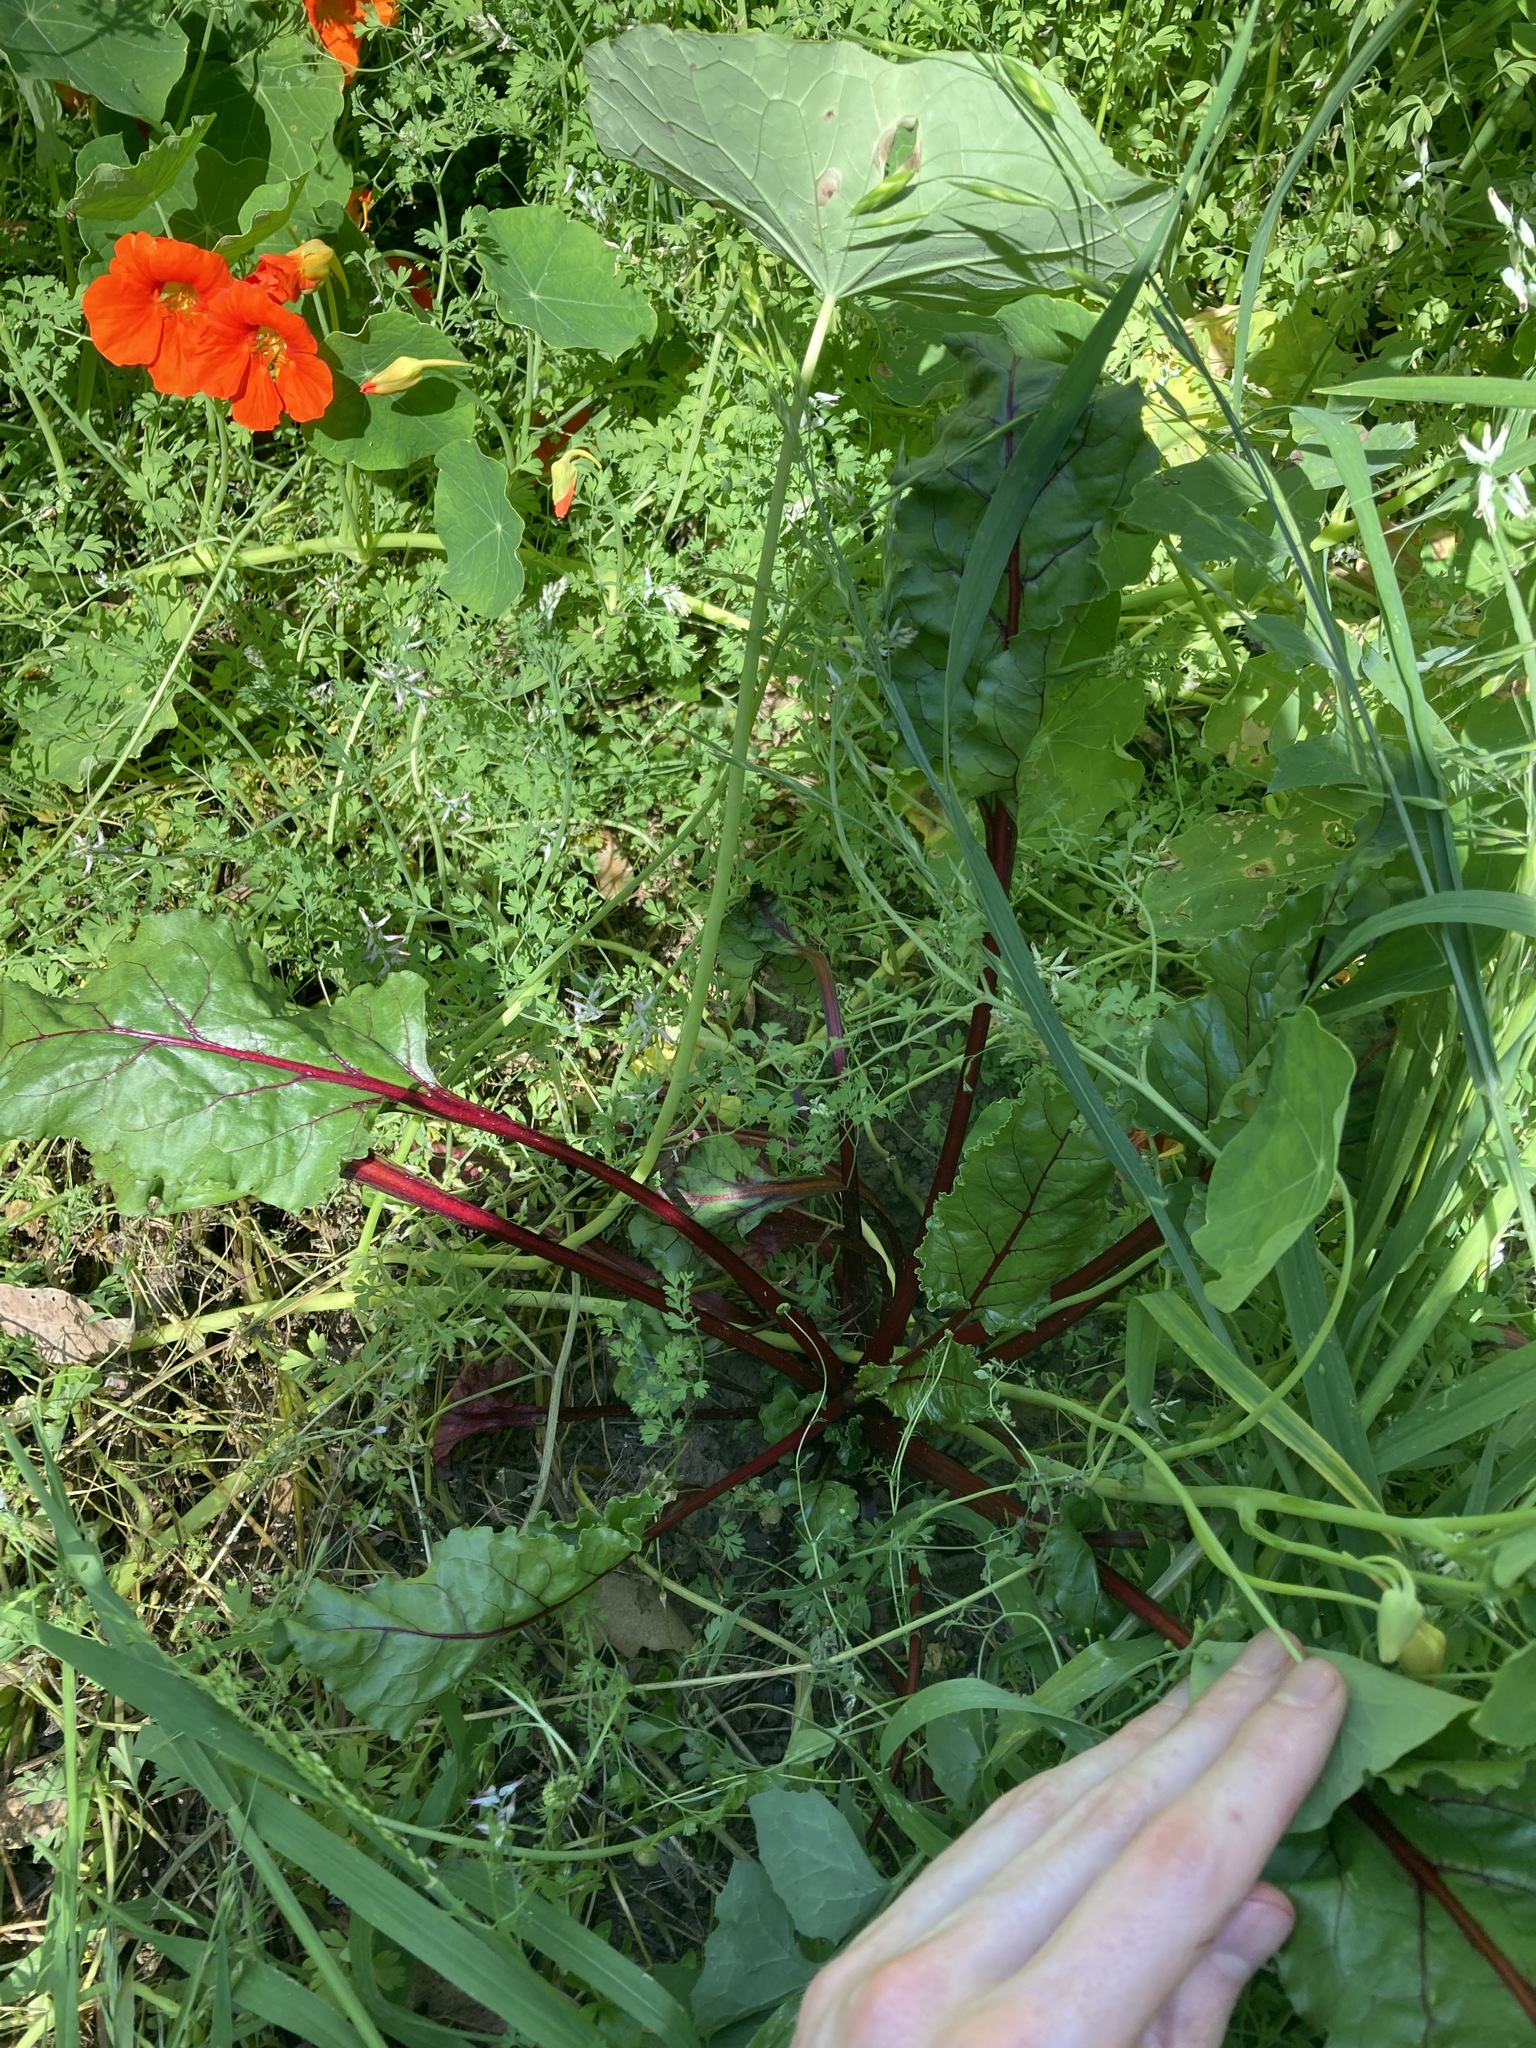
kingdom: Plantae
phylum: Tracheophyta
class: Magnoliopsida
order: Caryophyllales
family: Amaranthaceae
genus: Beta
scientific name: Beta vulgaris
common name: Beet
